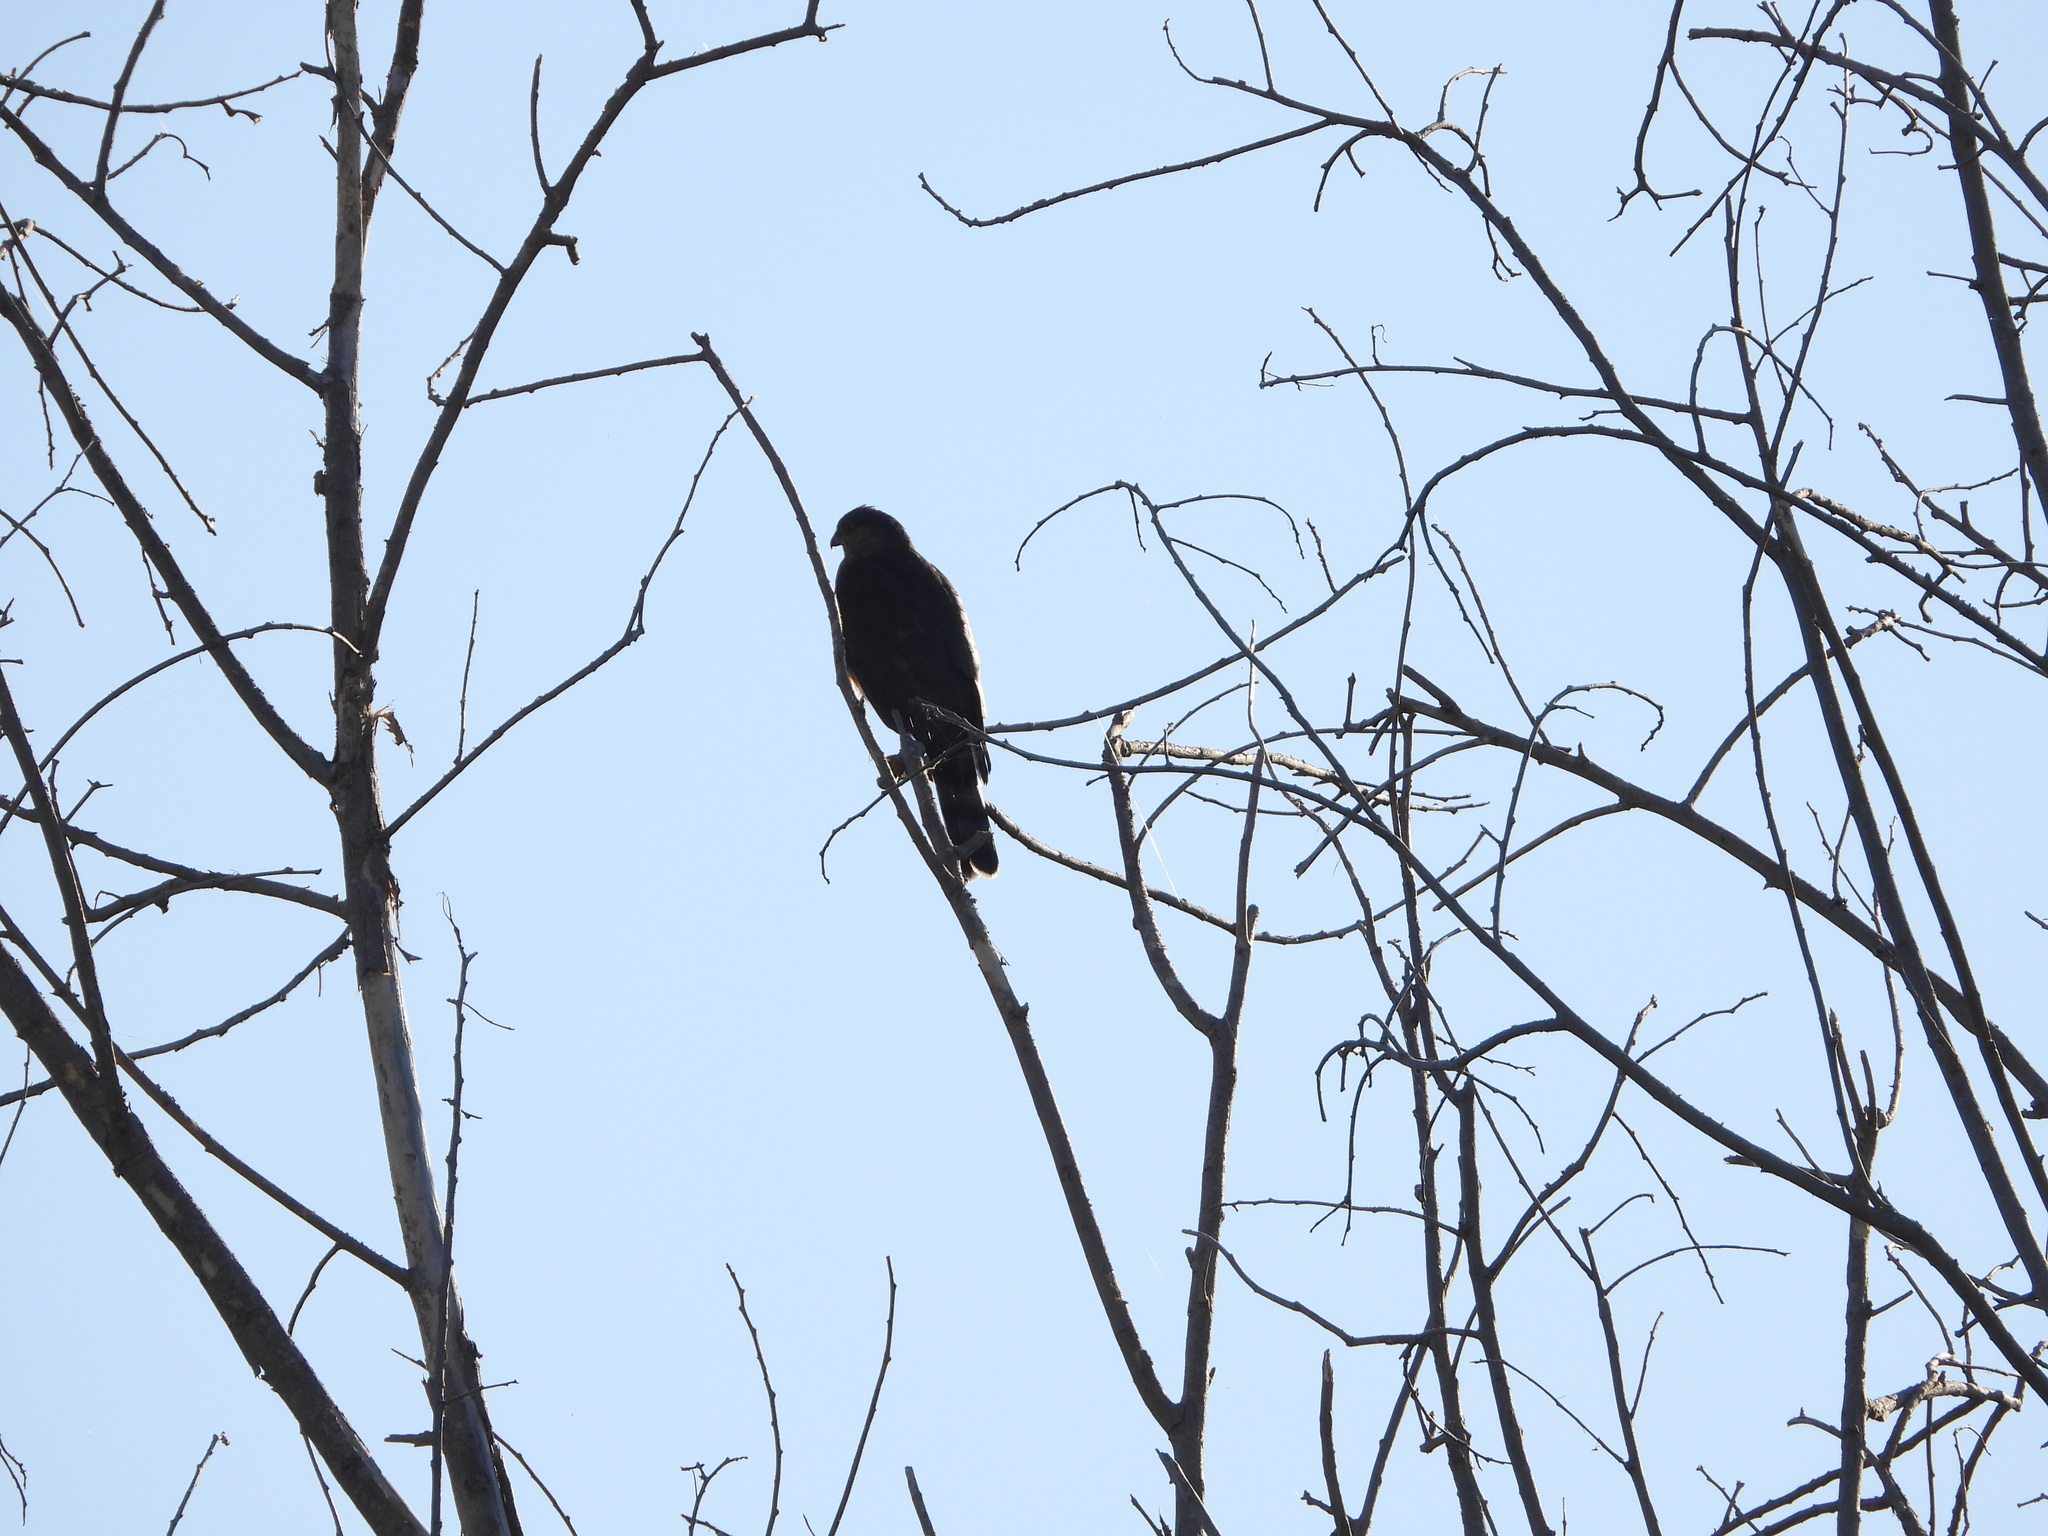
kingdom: Animalia
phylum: Chordata
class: Aves
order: Accipitriformes
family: Accipitridae
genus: Accipiter
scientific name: Accipiter striatus
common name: Sharp-shinned hawk
